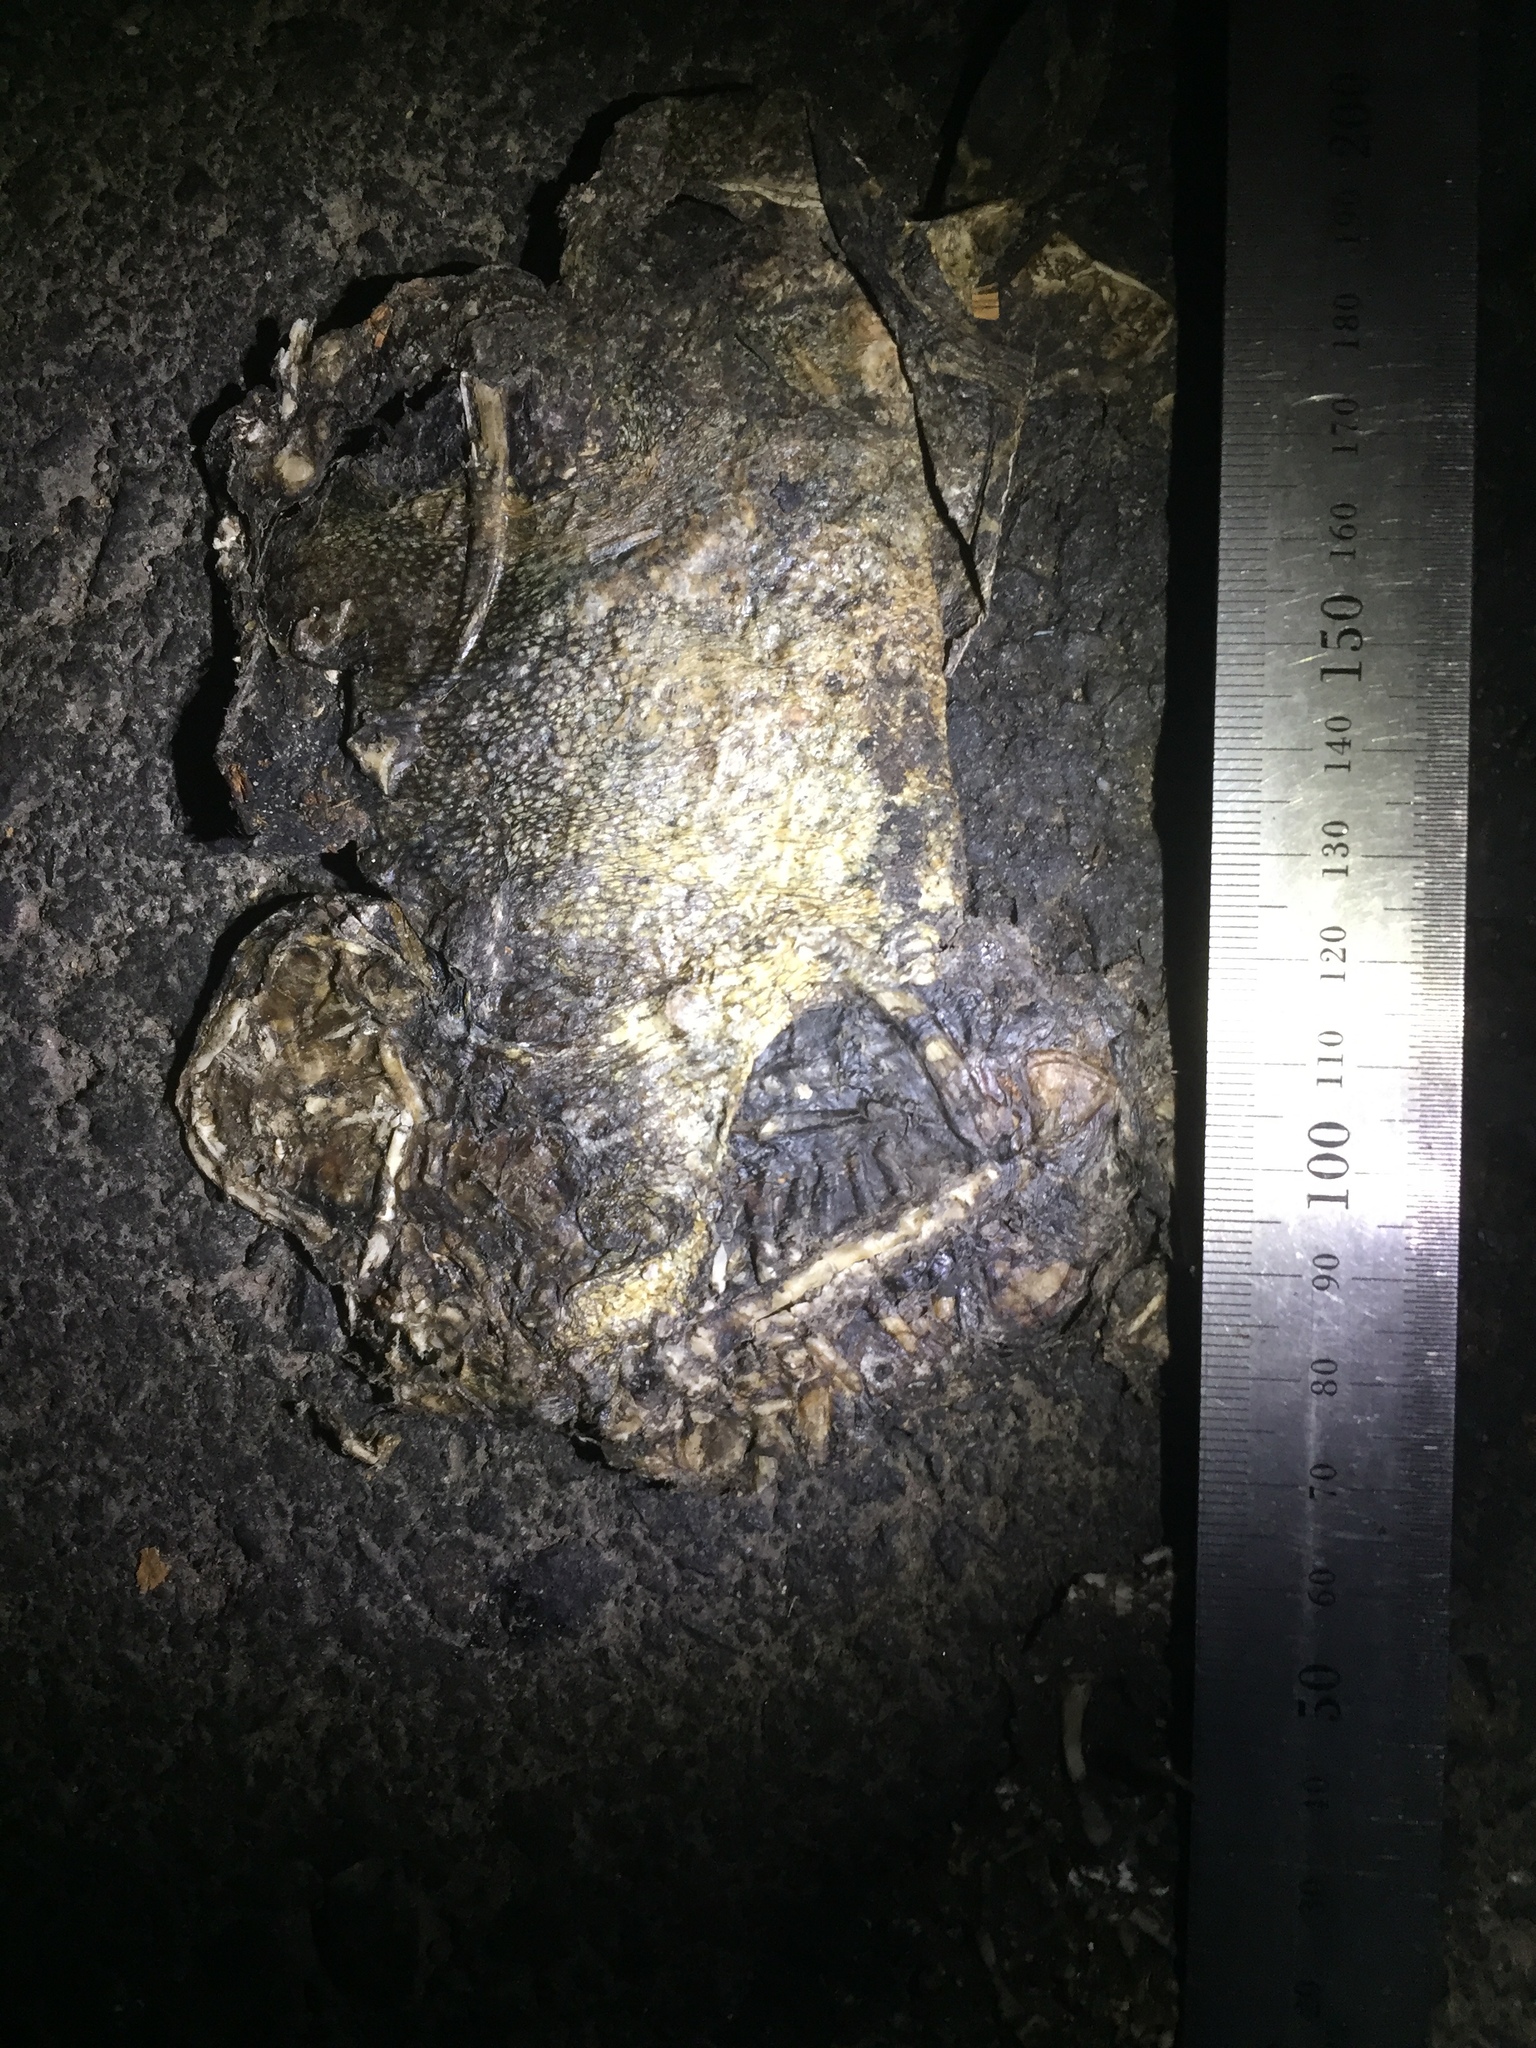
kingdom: Animalia
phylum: Chordata
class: Amphibia
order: Anura
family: Bufonidae
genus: Sclerophrys
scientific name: Sclerophrys pantherina
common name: Panther toad
